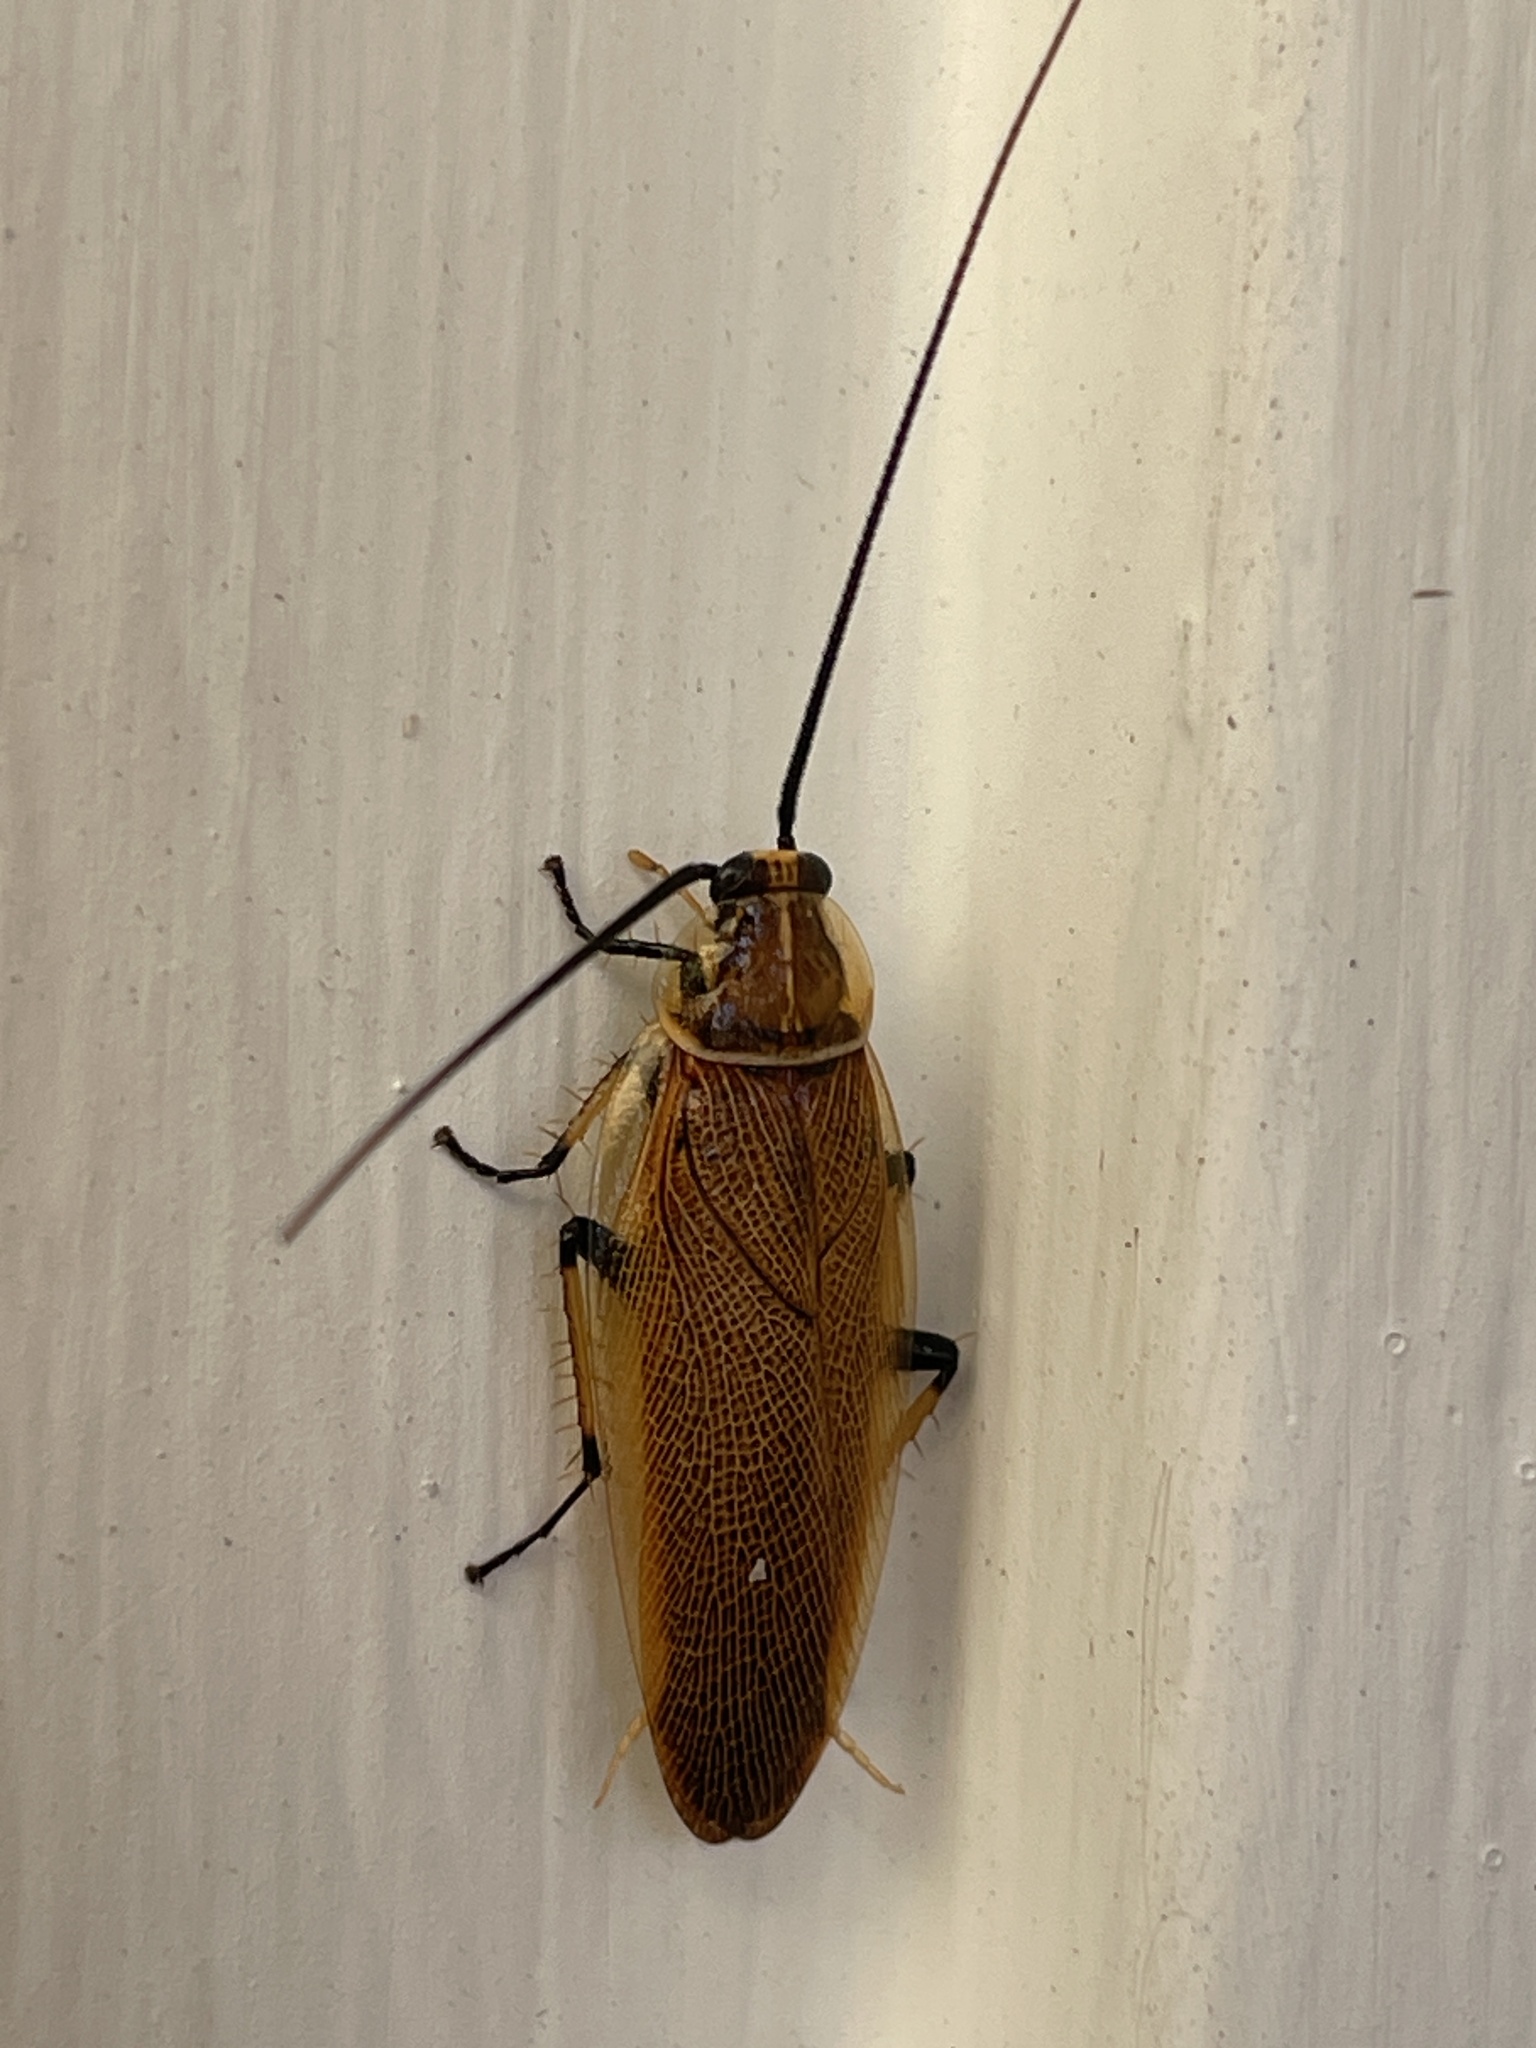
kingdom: Animalia
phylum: Arthropoda
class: Insecta
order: Blattodea
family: Ectobiidae
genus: Balta
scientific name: Balta bicolor
